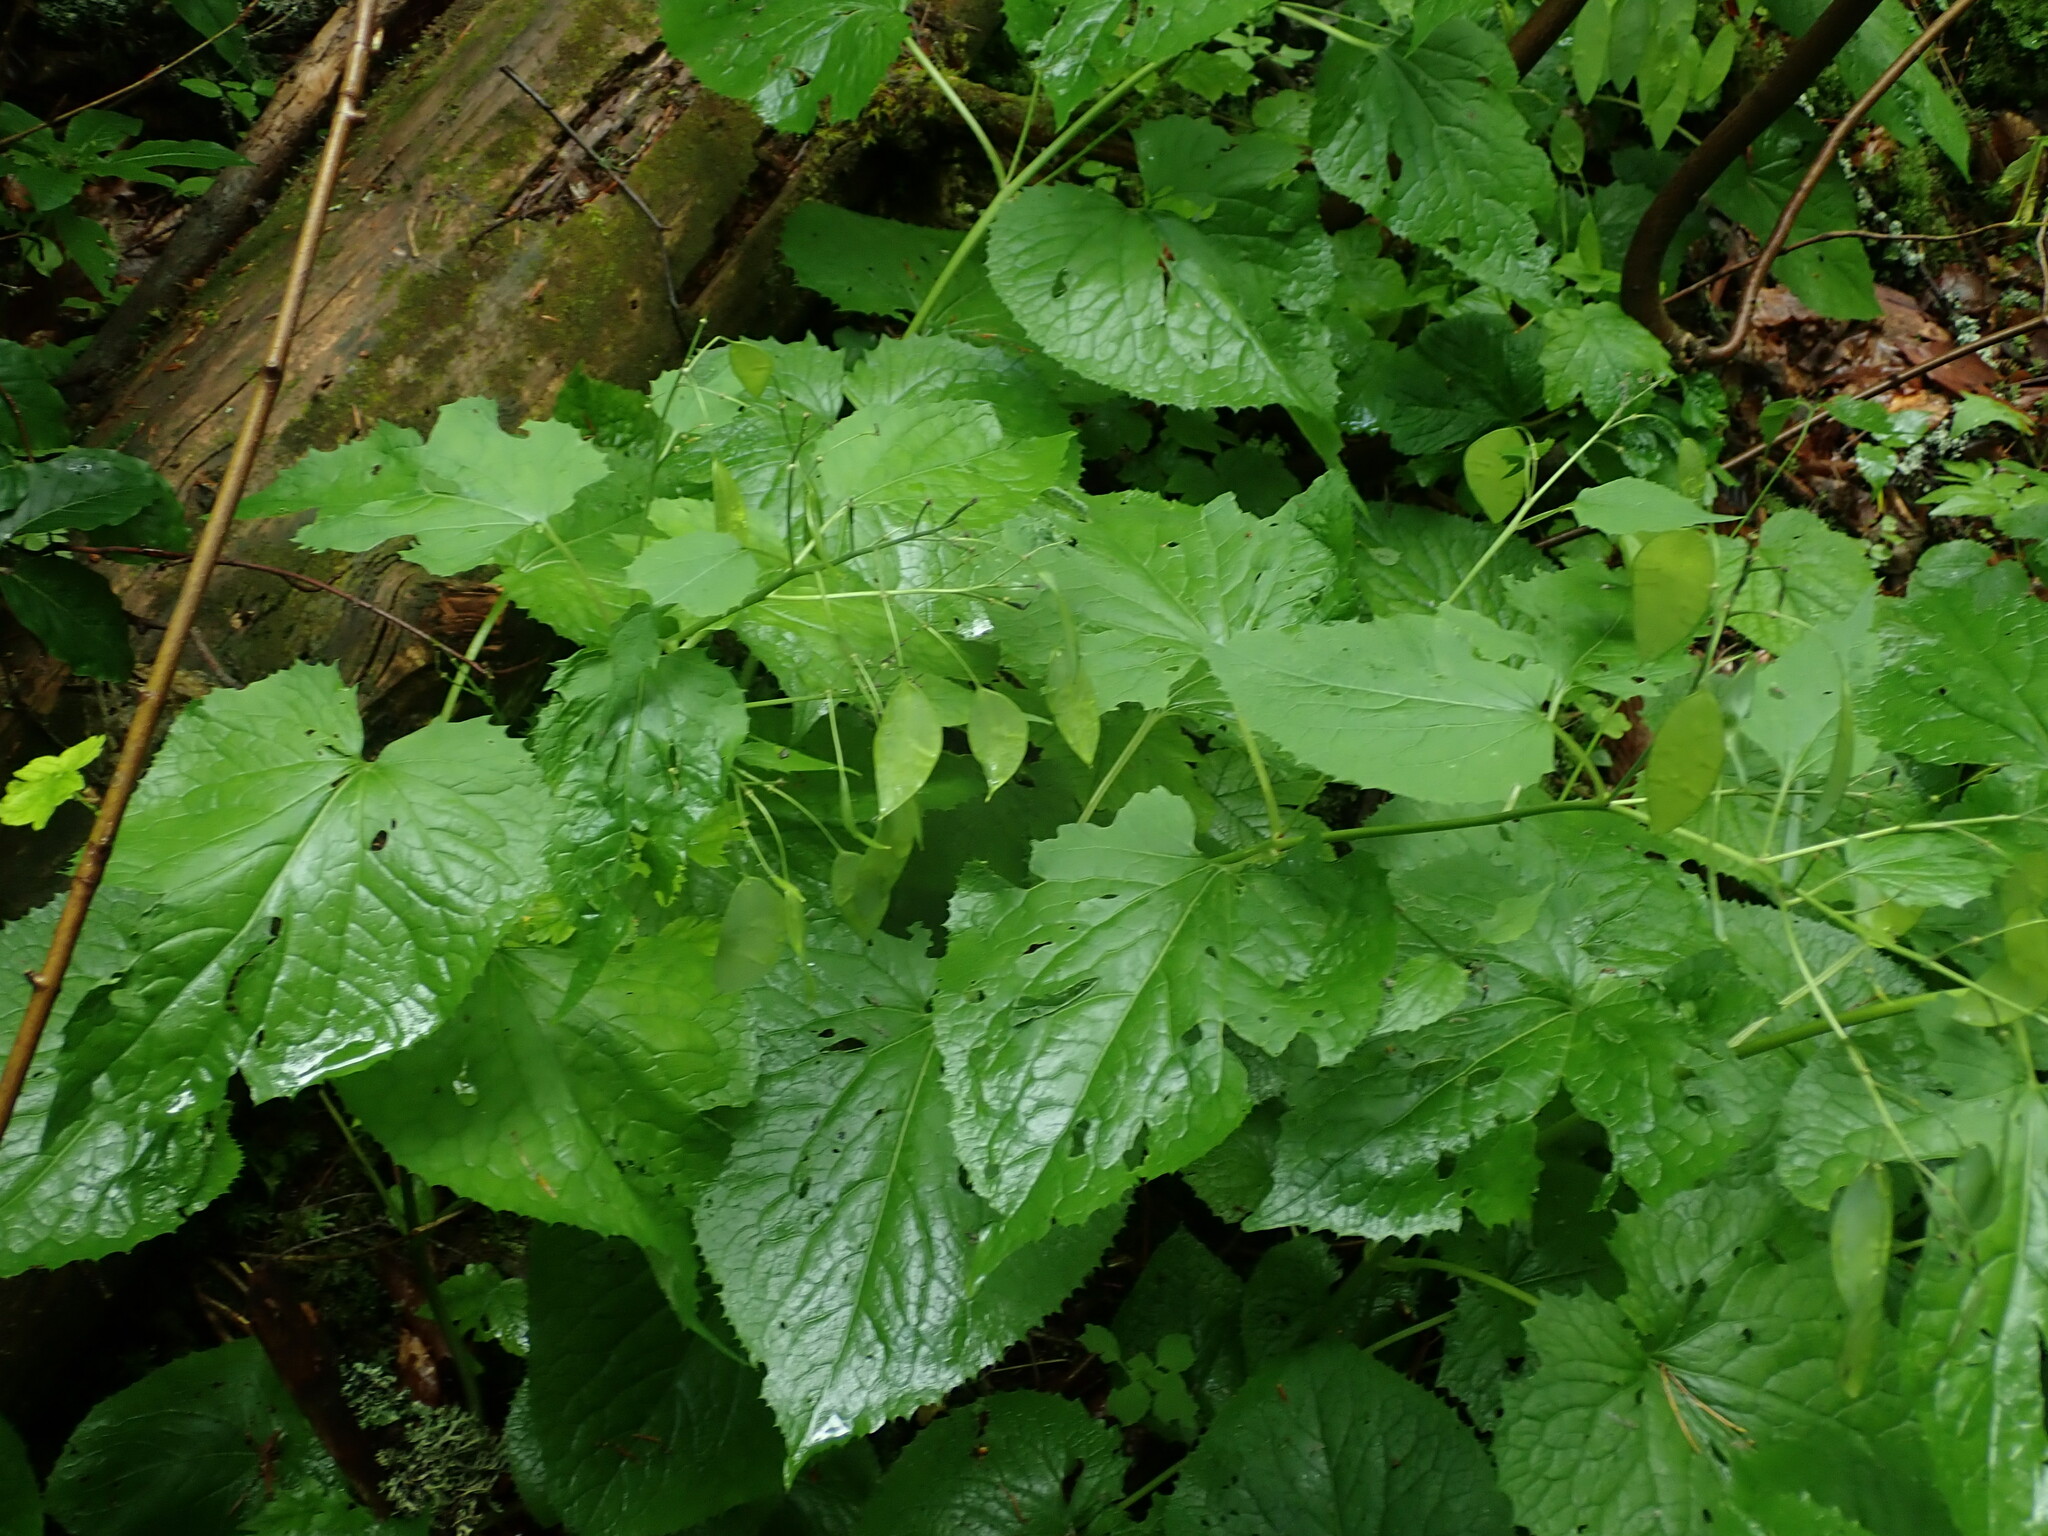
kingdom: Plantae
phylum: Tracheophyta
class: Magnoliopsida
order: Brassicales
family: Brassicaceae
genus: Lunaria
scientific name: Lunaria rediviva
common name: Perennial honesty
